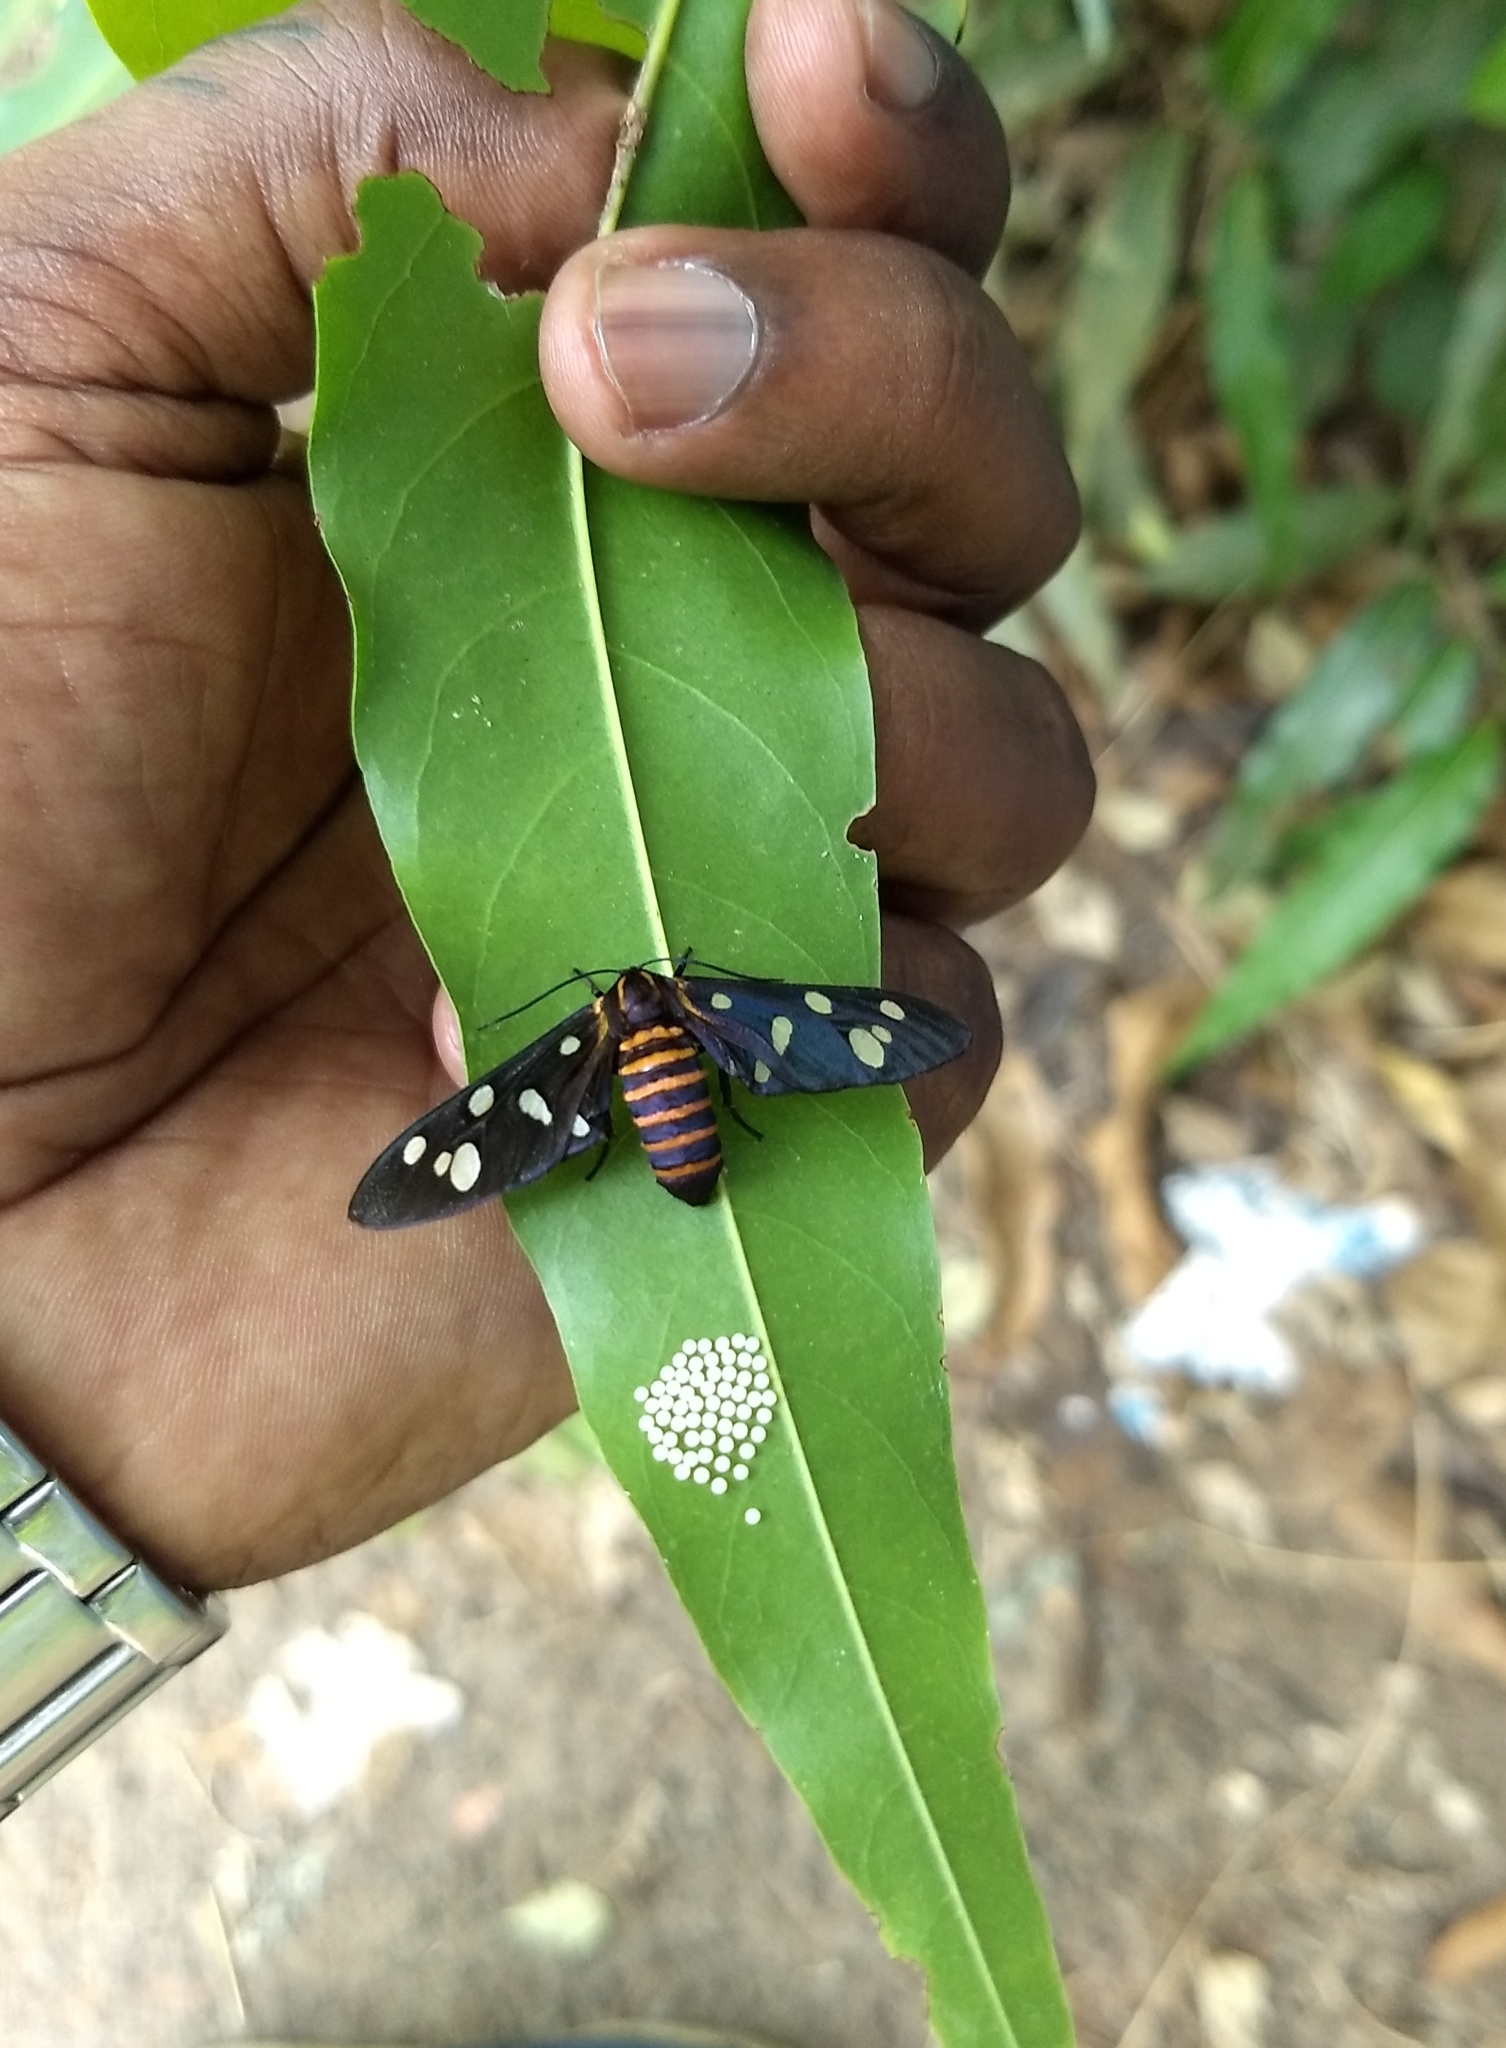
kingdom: Animalia
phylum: Arthropoda
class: Insecta
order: Lepidoptera
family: Erebidae
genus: Amata
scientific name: Amata passalis
